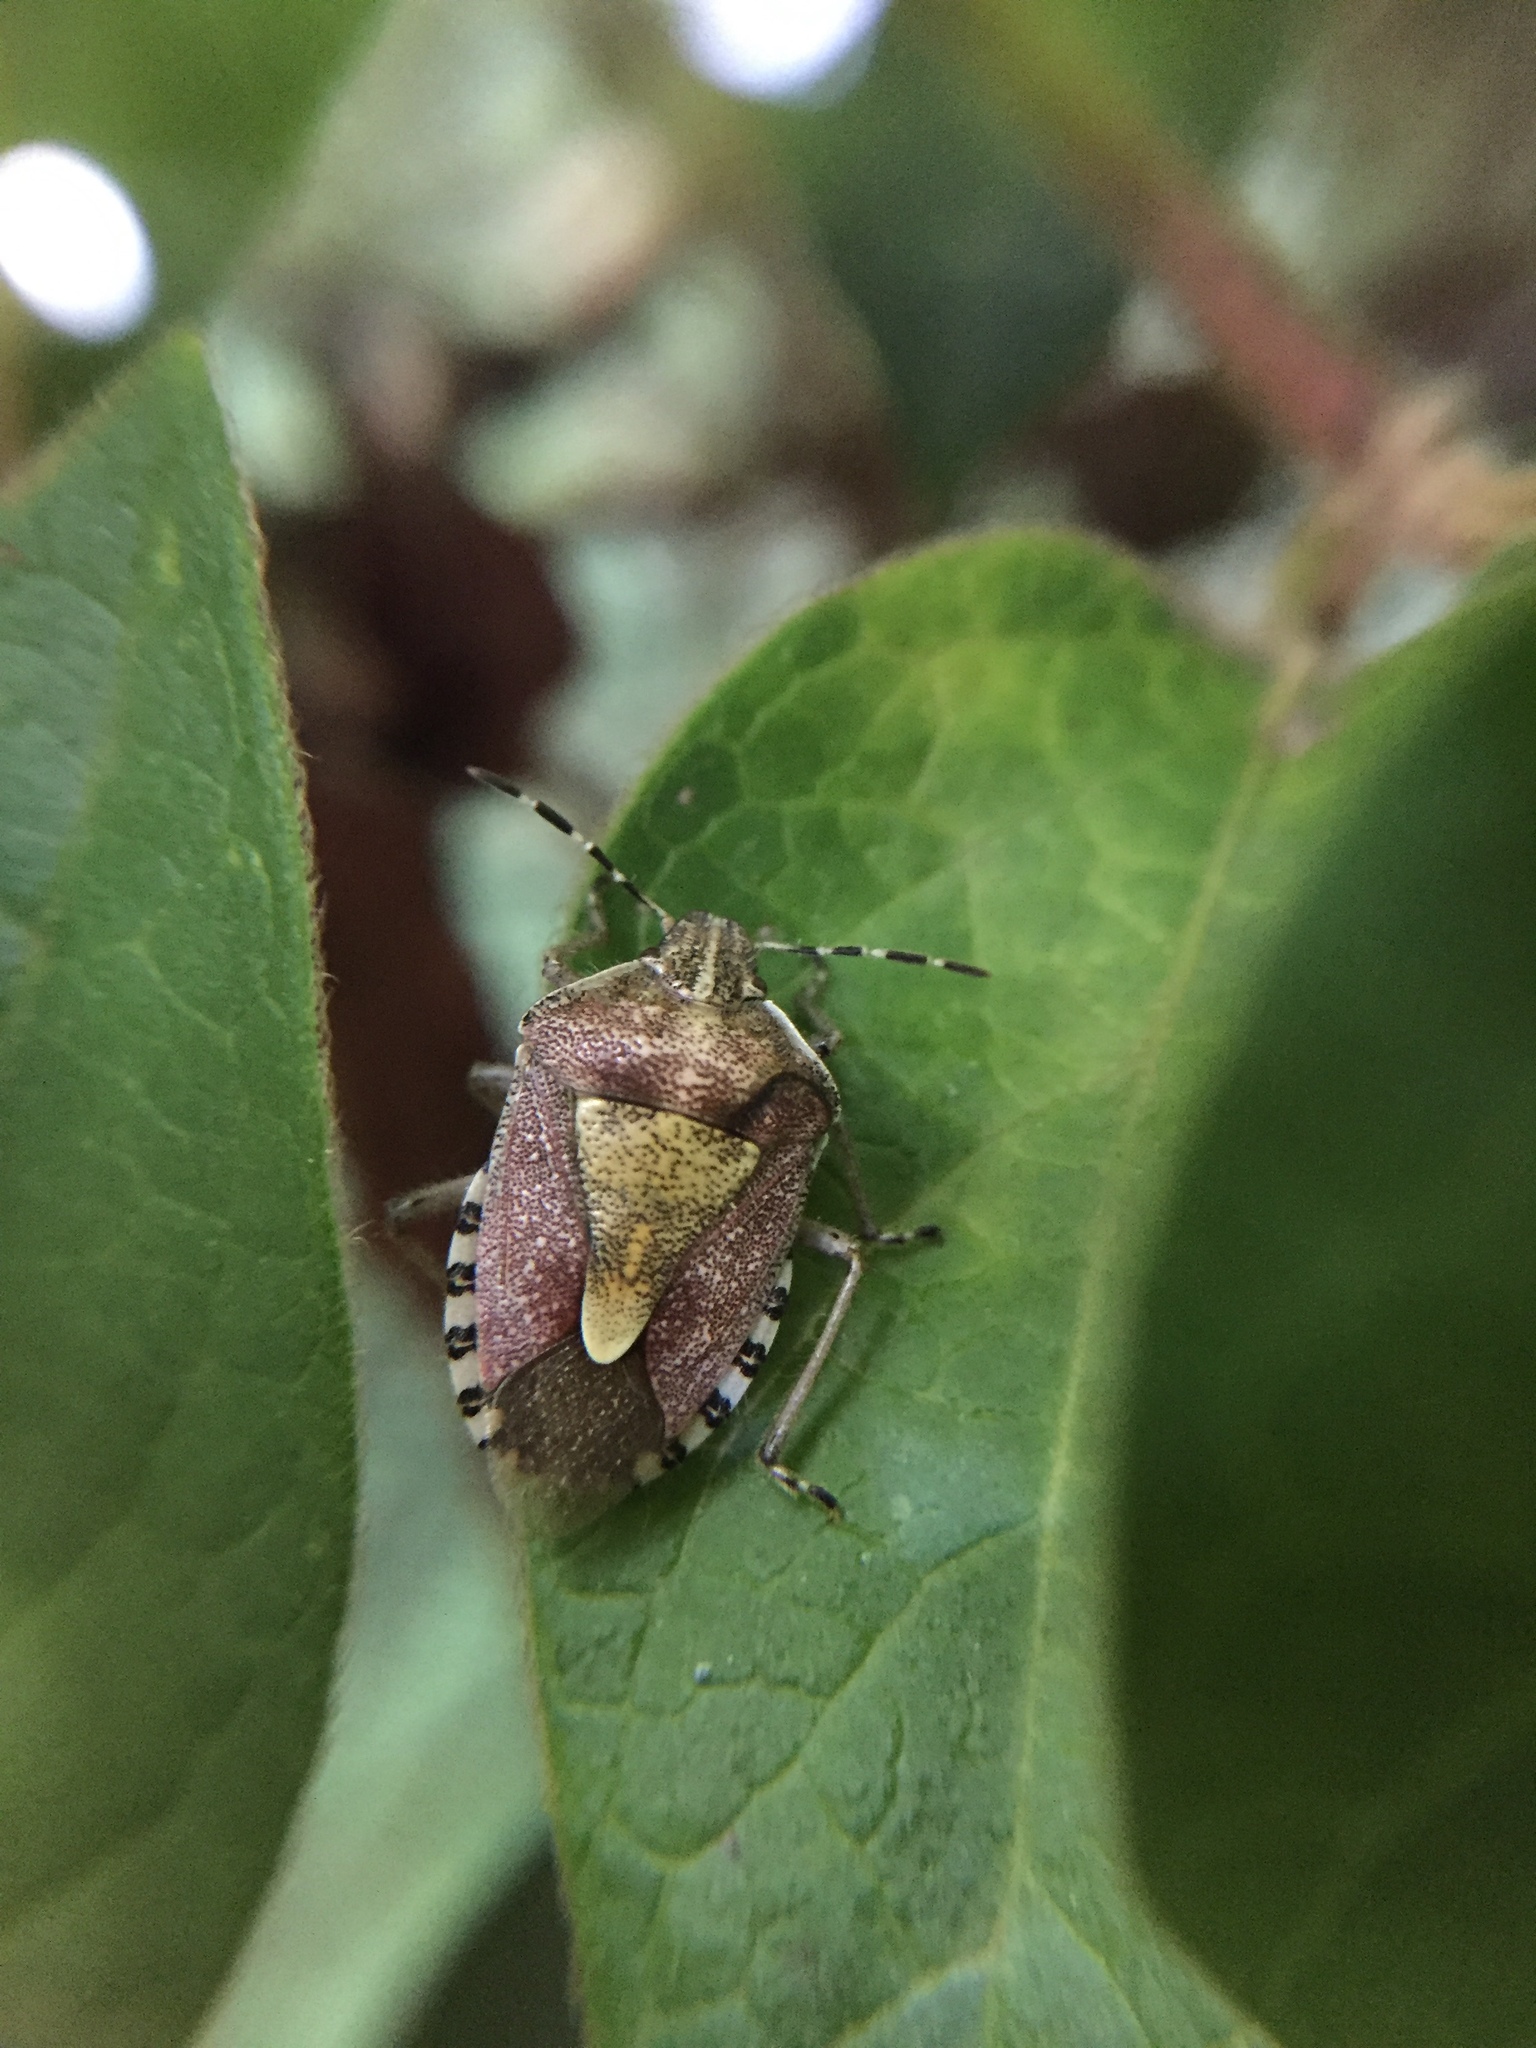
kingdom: Animalia
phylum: Arthropoda
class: Insecta
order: Hemiptera
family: Pentatomidae
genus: Dolycoris
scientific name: Dolycoris baccarum
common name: Sloe bug
